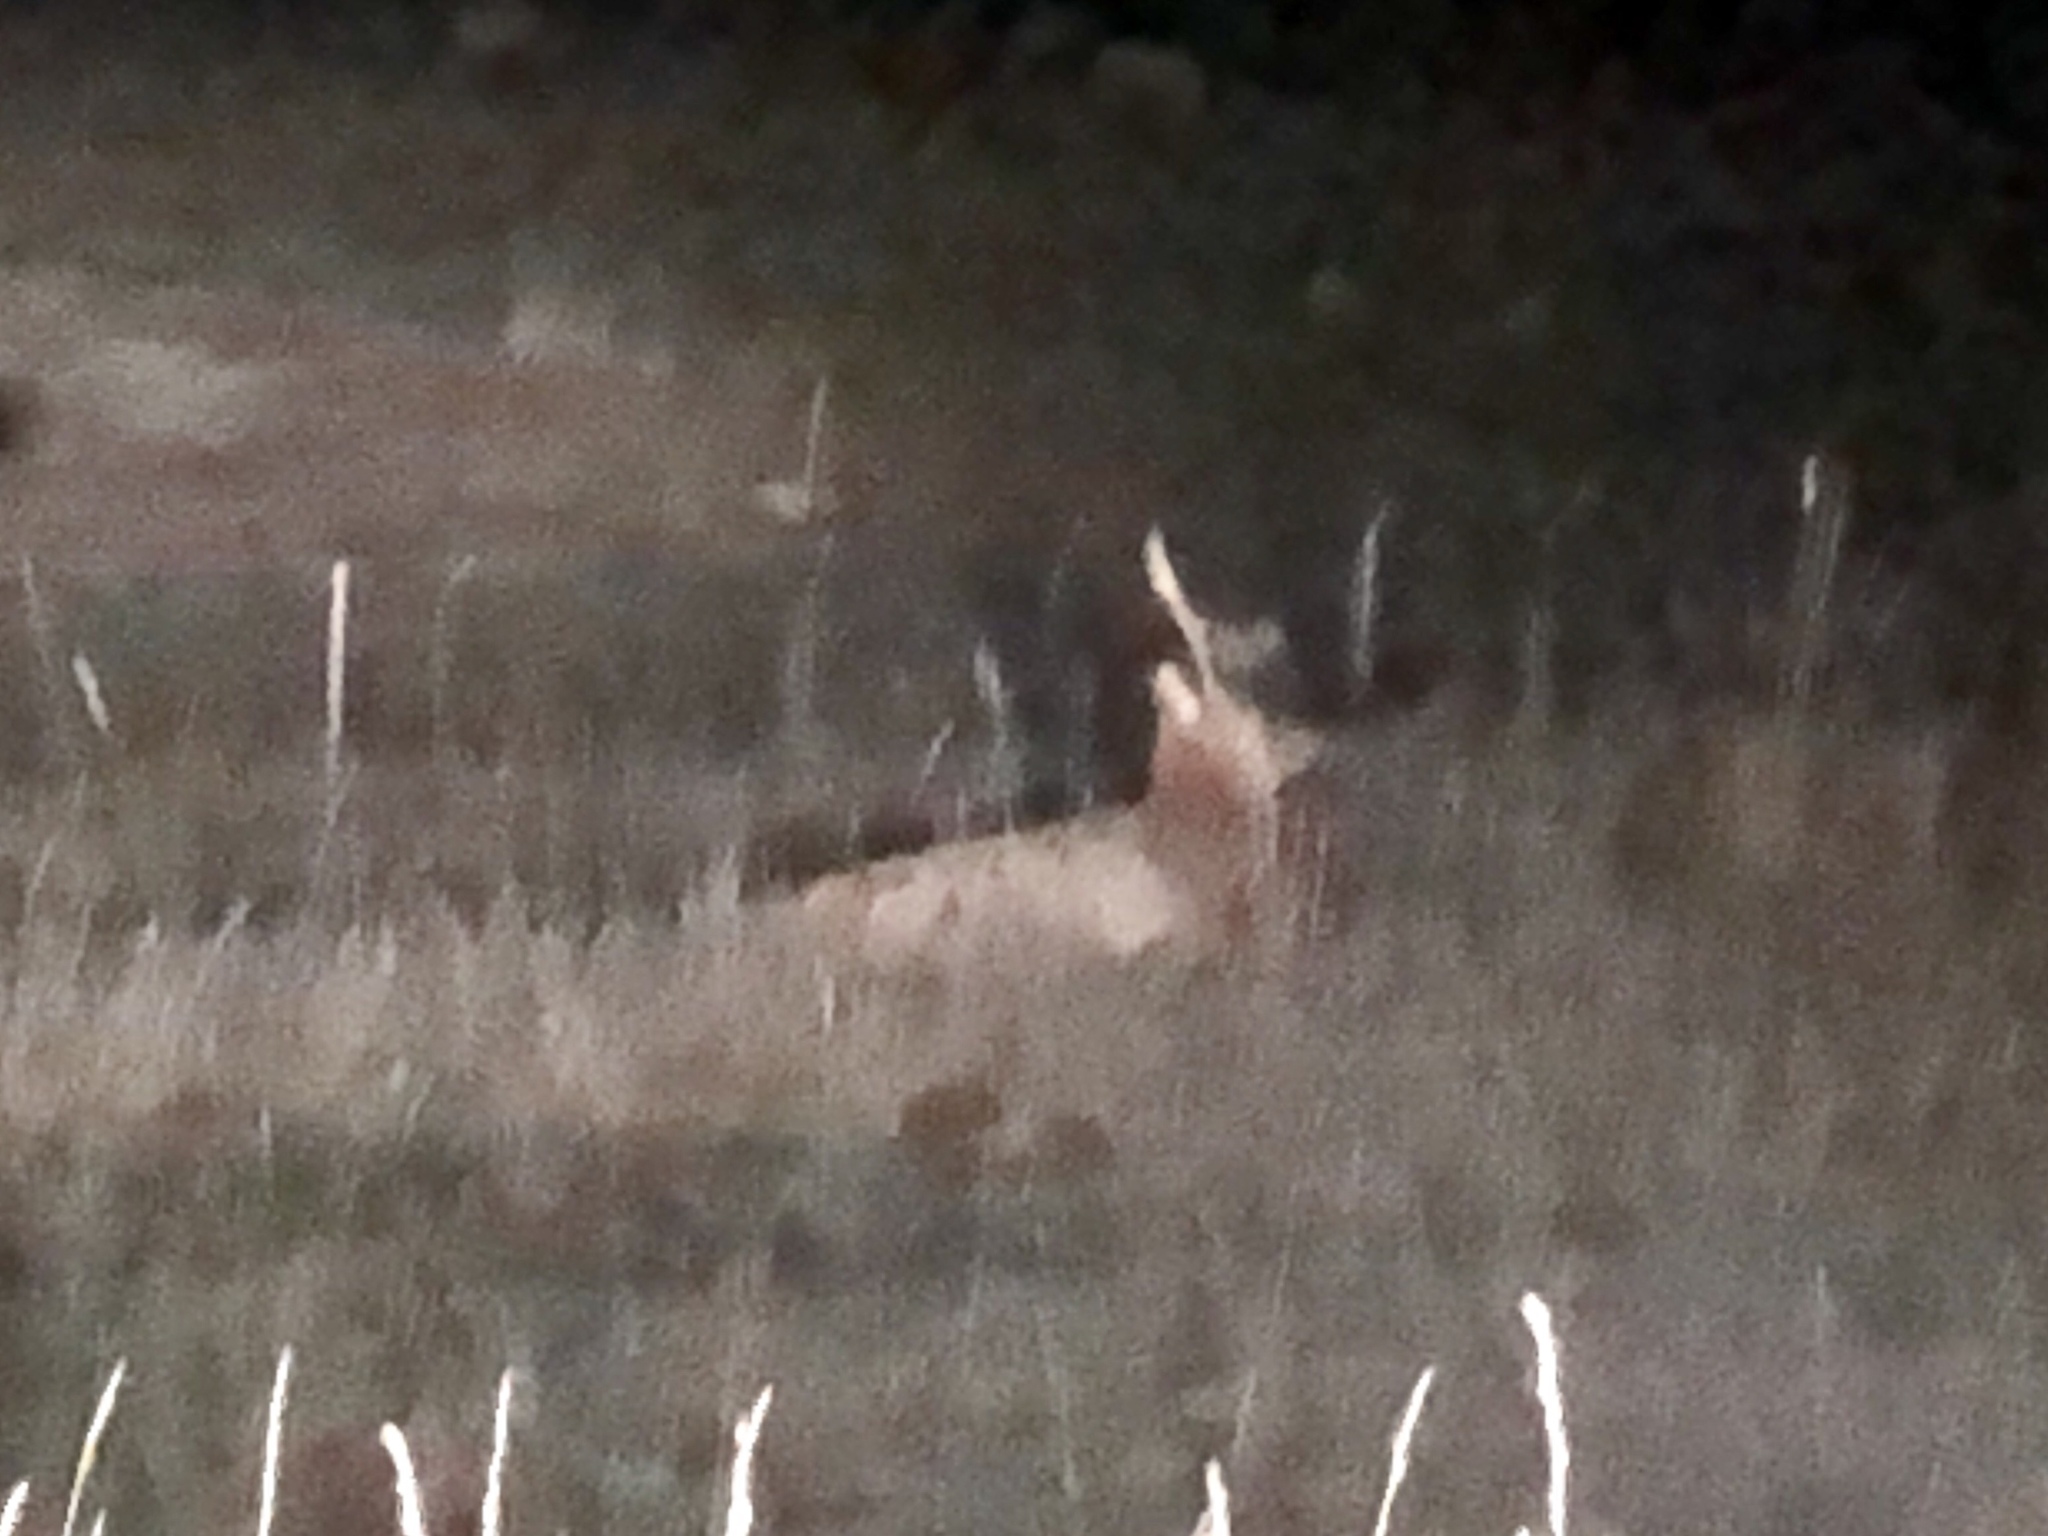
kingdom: Animalia
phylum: Chordata
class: Mammalia
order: Artiodactyla
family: Cervidae
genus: Cervus
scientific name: Cervus elaphus
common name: Red deer
